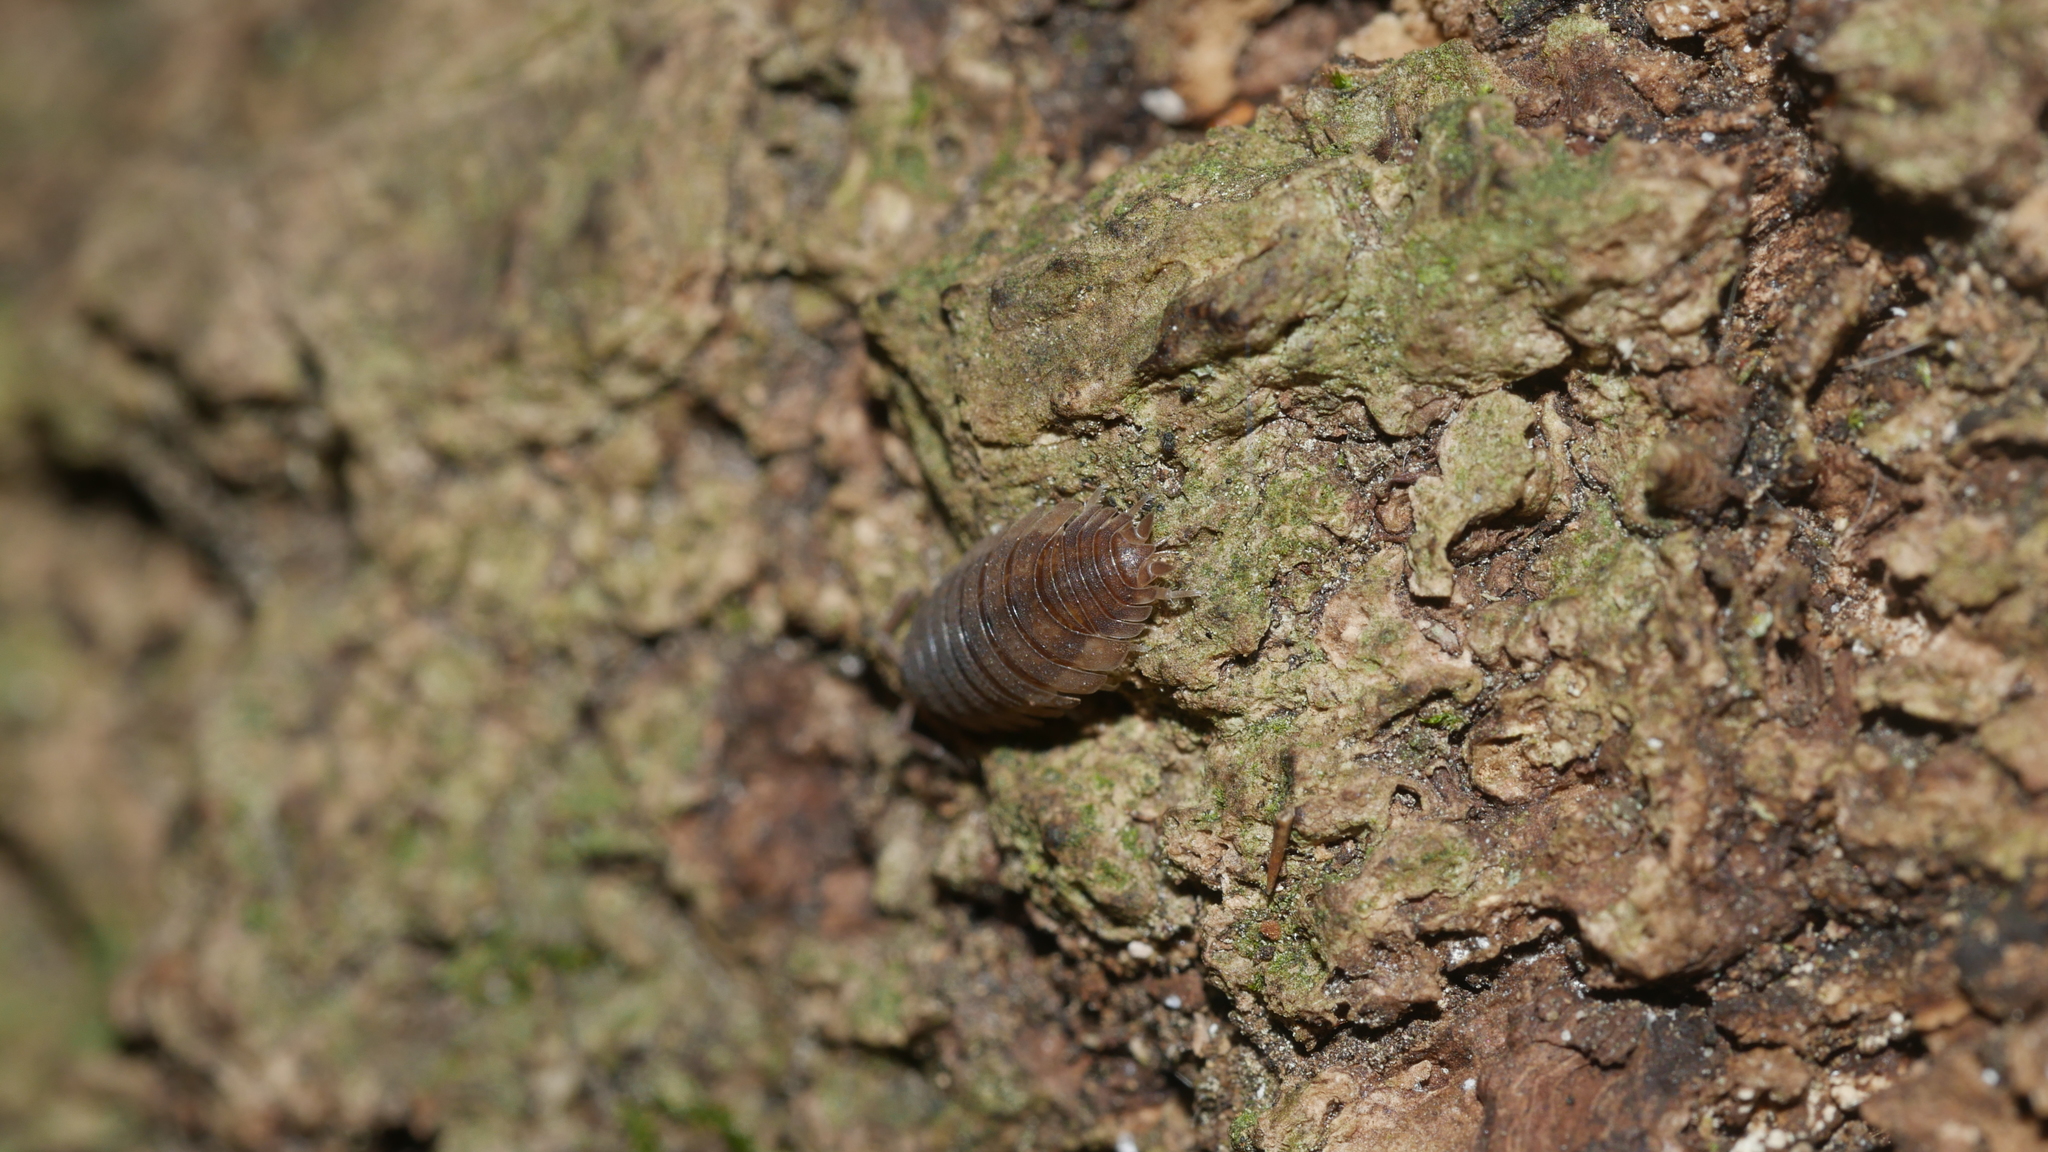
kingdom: Animalia
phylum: Arthropoda
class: Malacostraca
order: Isopoda
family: Porcellionidae
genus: Porcellio
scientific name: Porcellio scaber
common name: Common rough woodlouse
